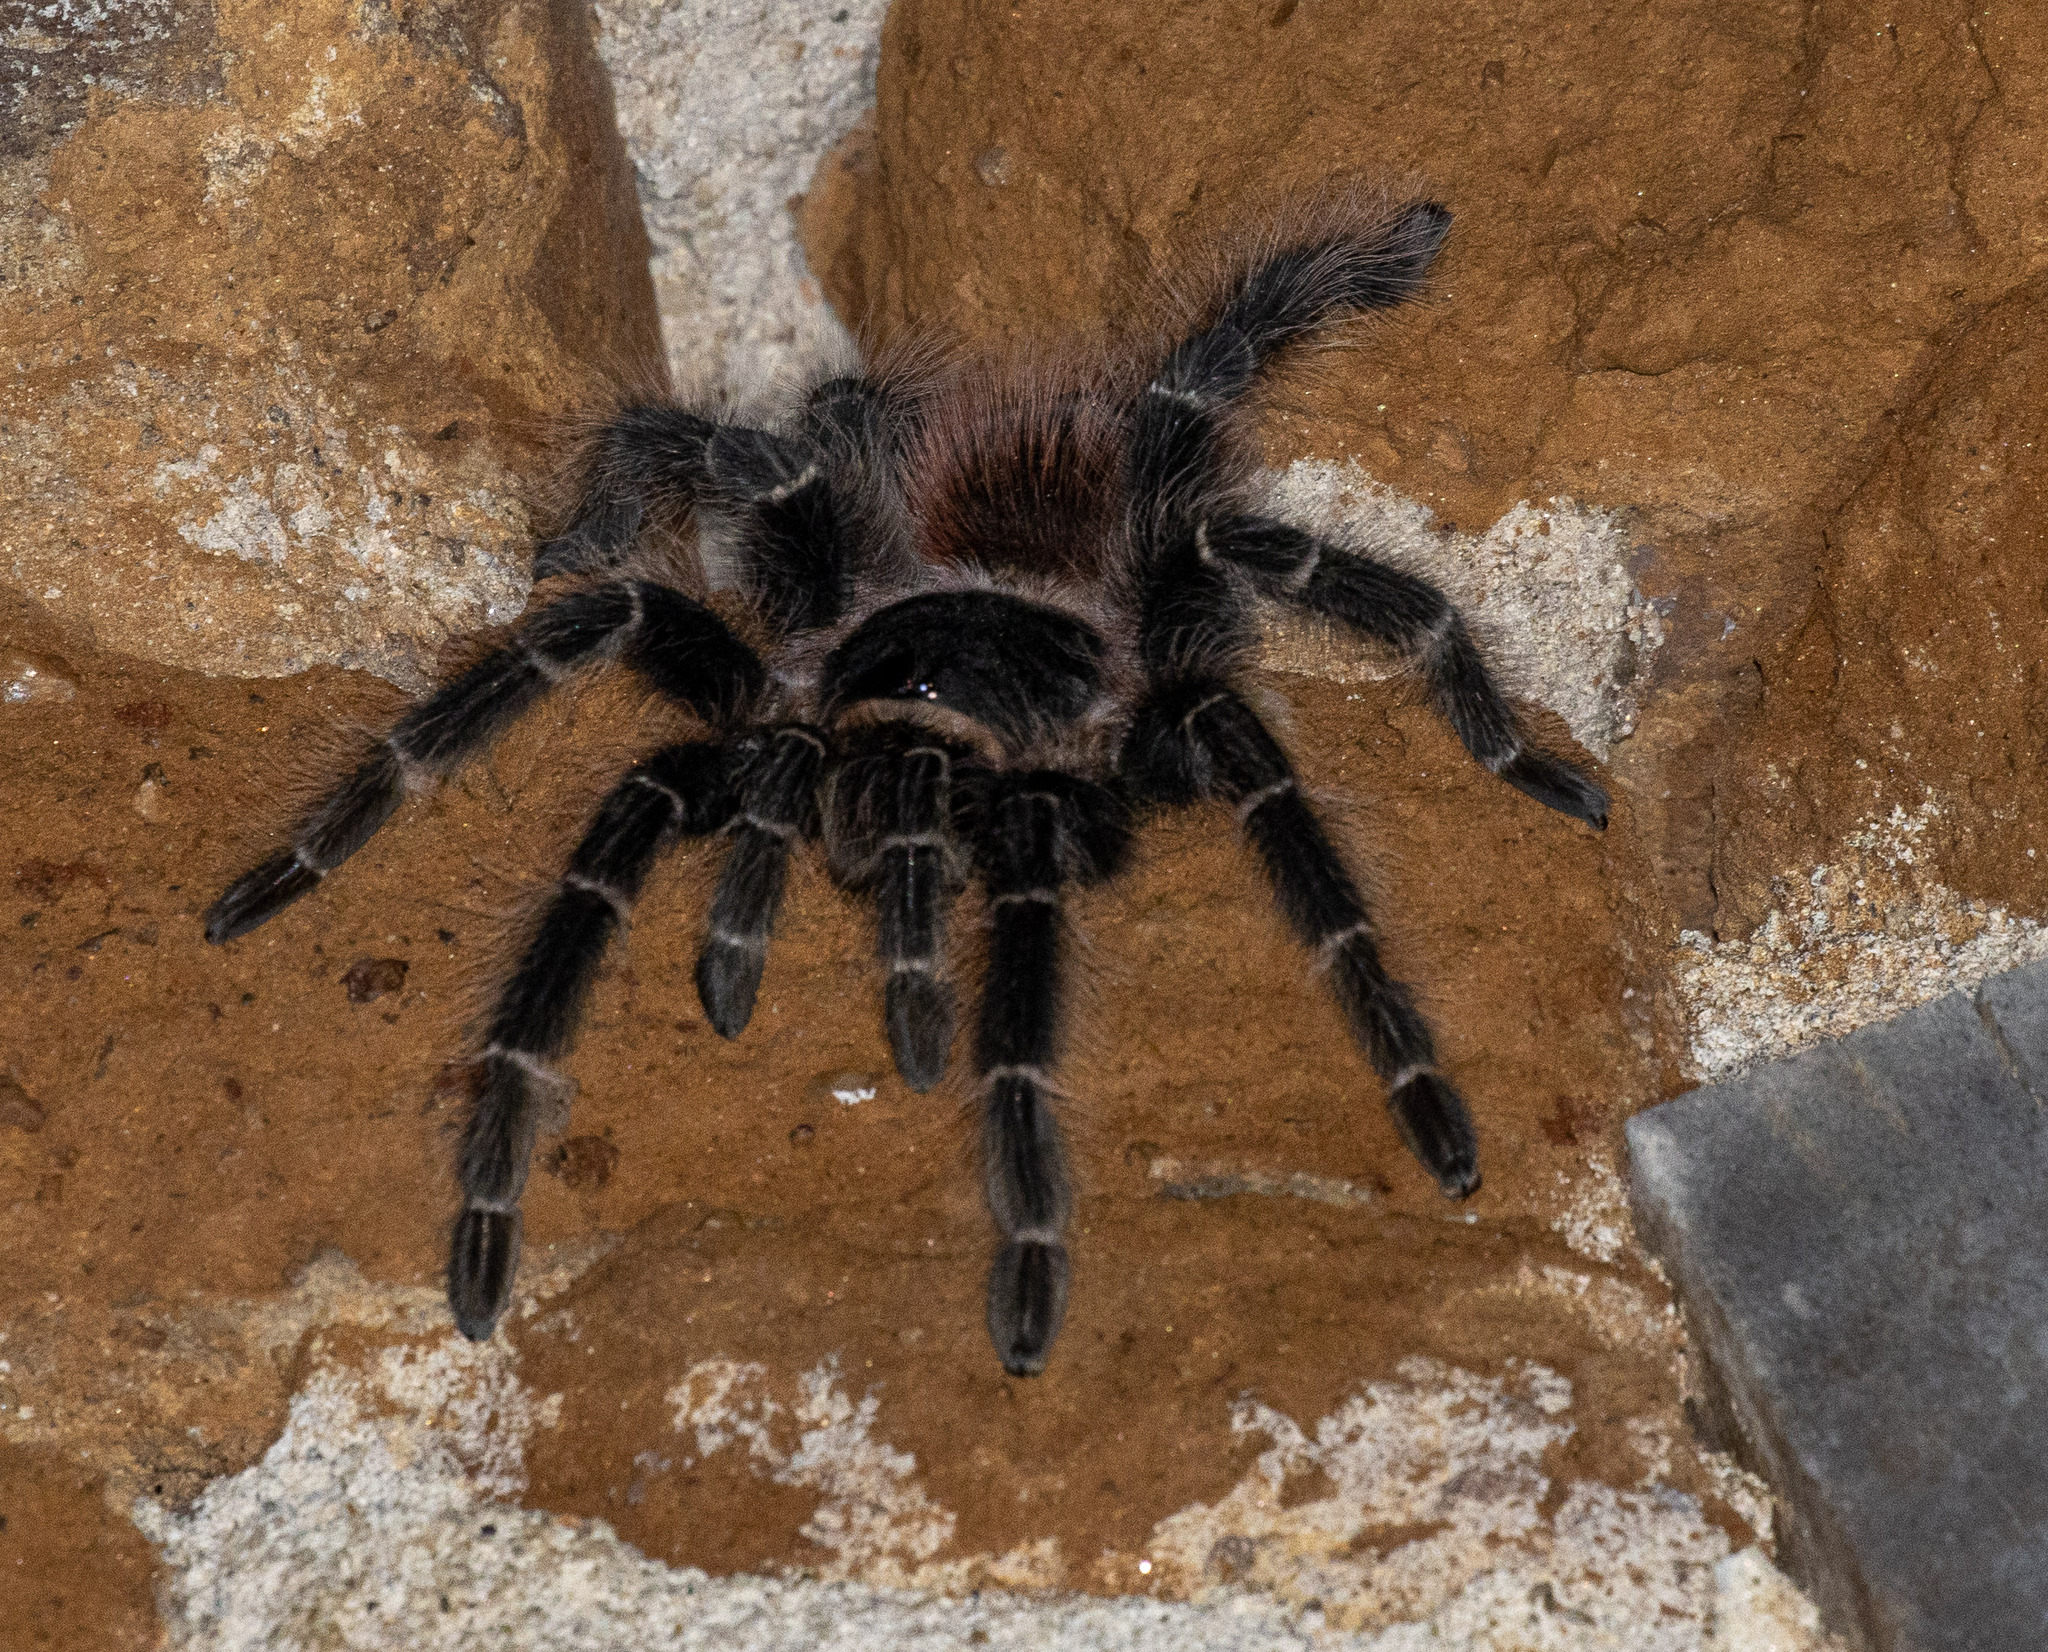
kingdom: Animalia
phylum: Arthropoda
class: Arachnida
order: Araneae
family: Theraphosidae
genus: Lasiodora
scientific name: Lasiodora parahybana
